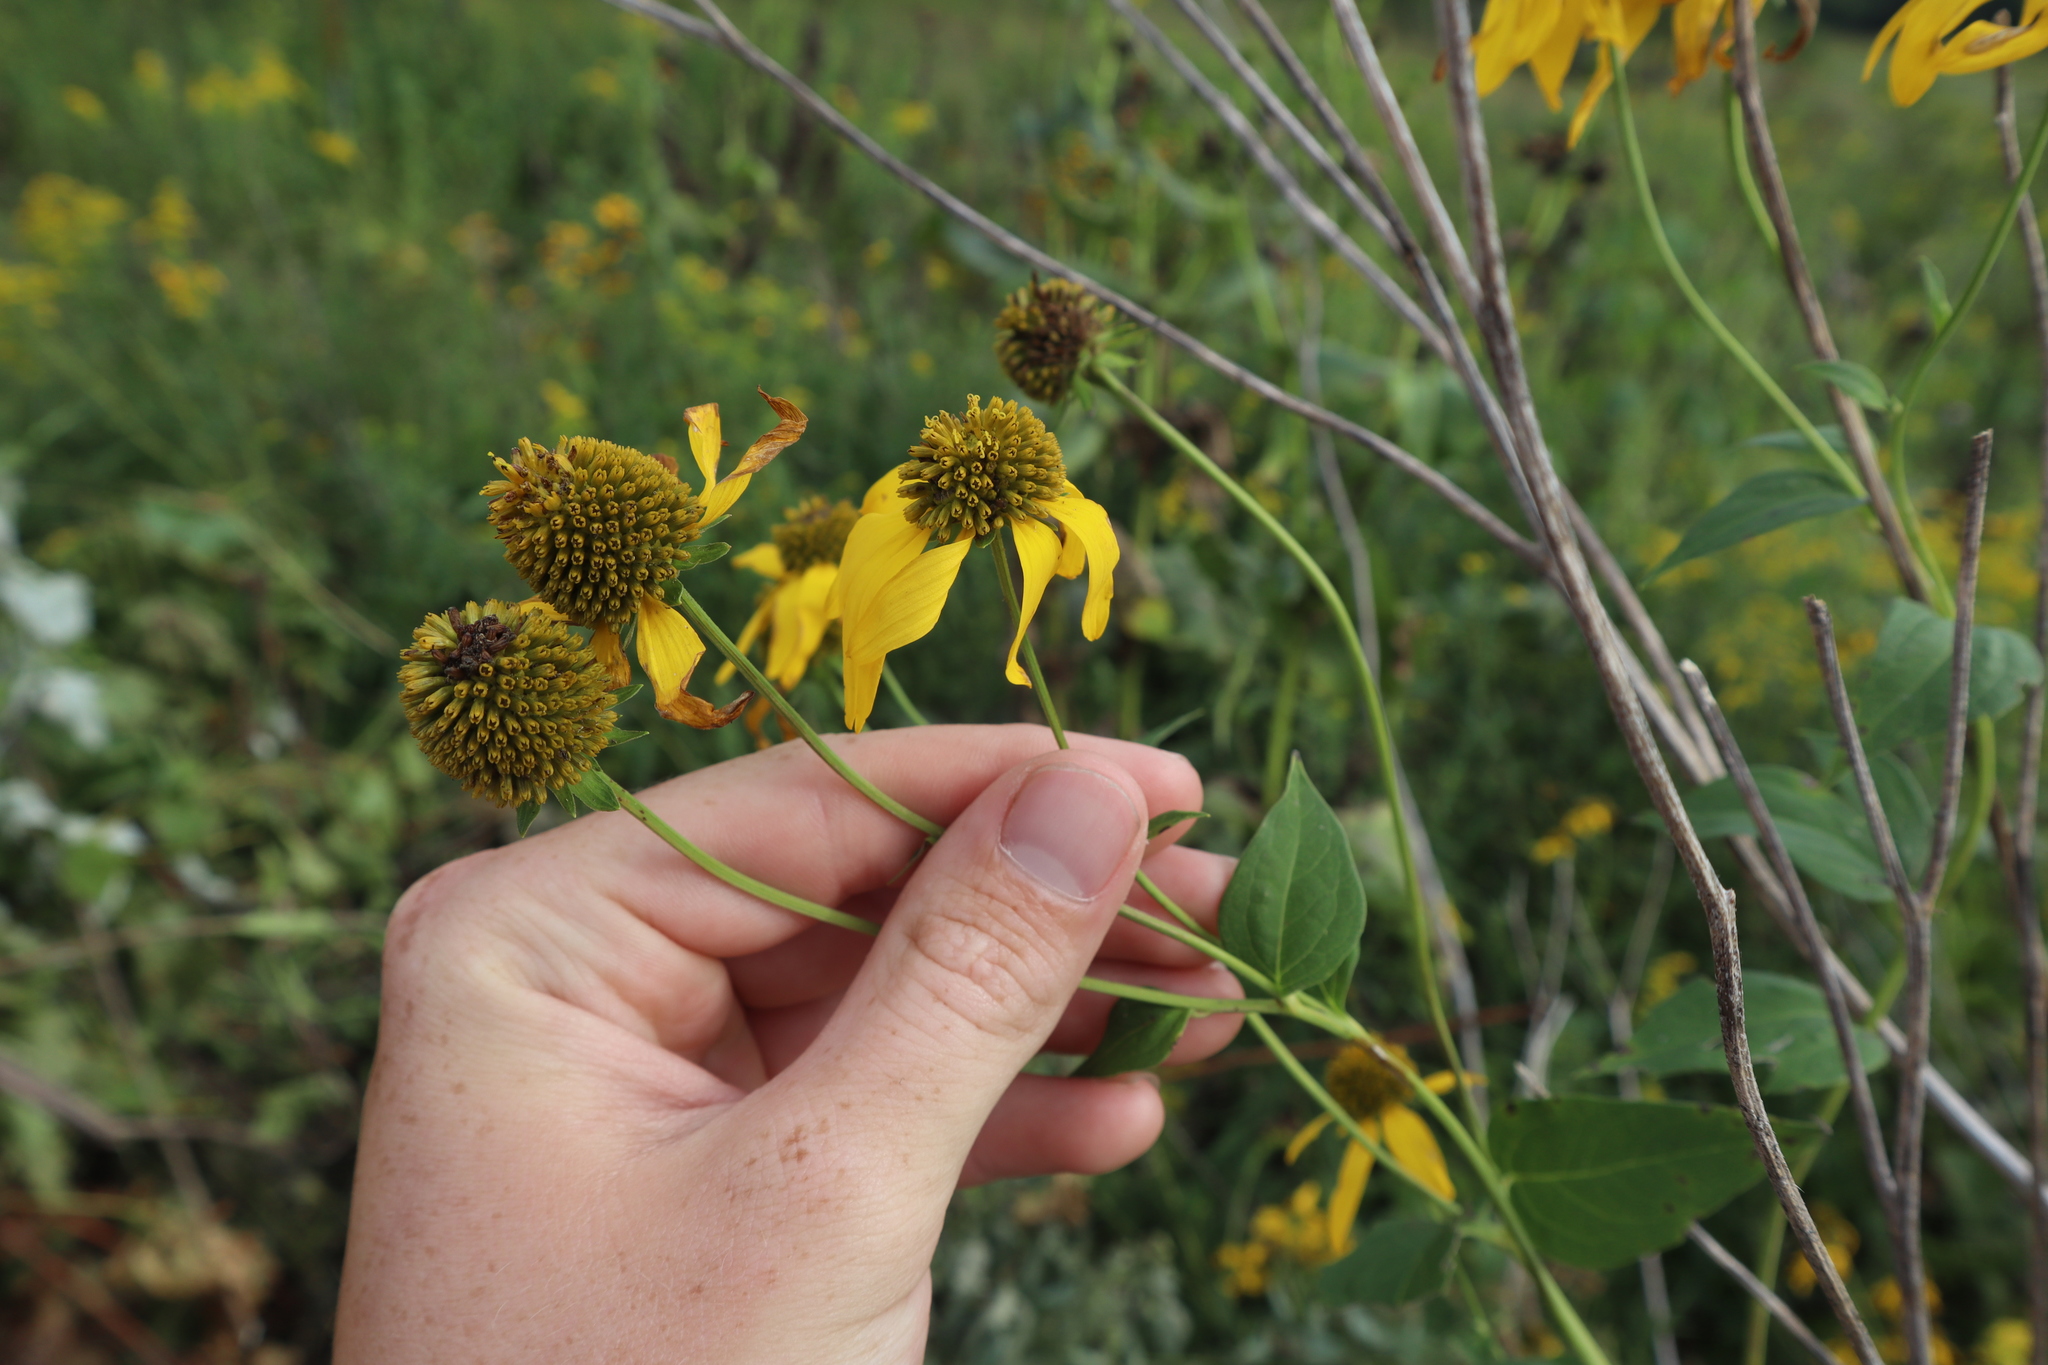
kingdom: Plantae
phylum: Tracheophyta
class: Magnoliopsida
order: Asterales
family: Asteraceae
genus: Rudbeckia
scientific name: Rudbeckia laciniata
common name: Coneflower
